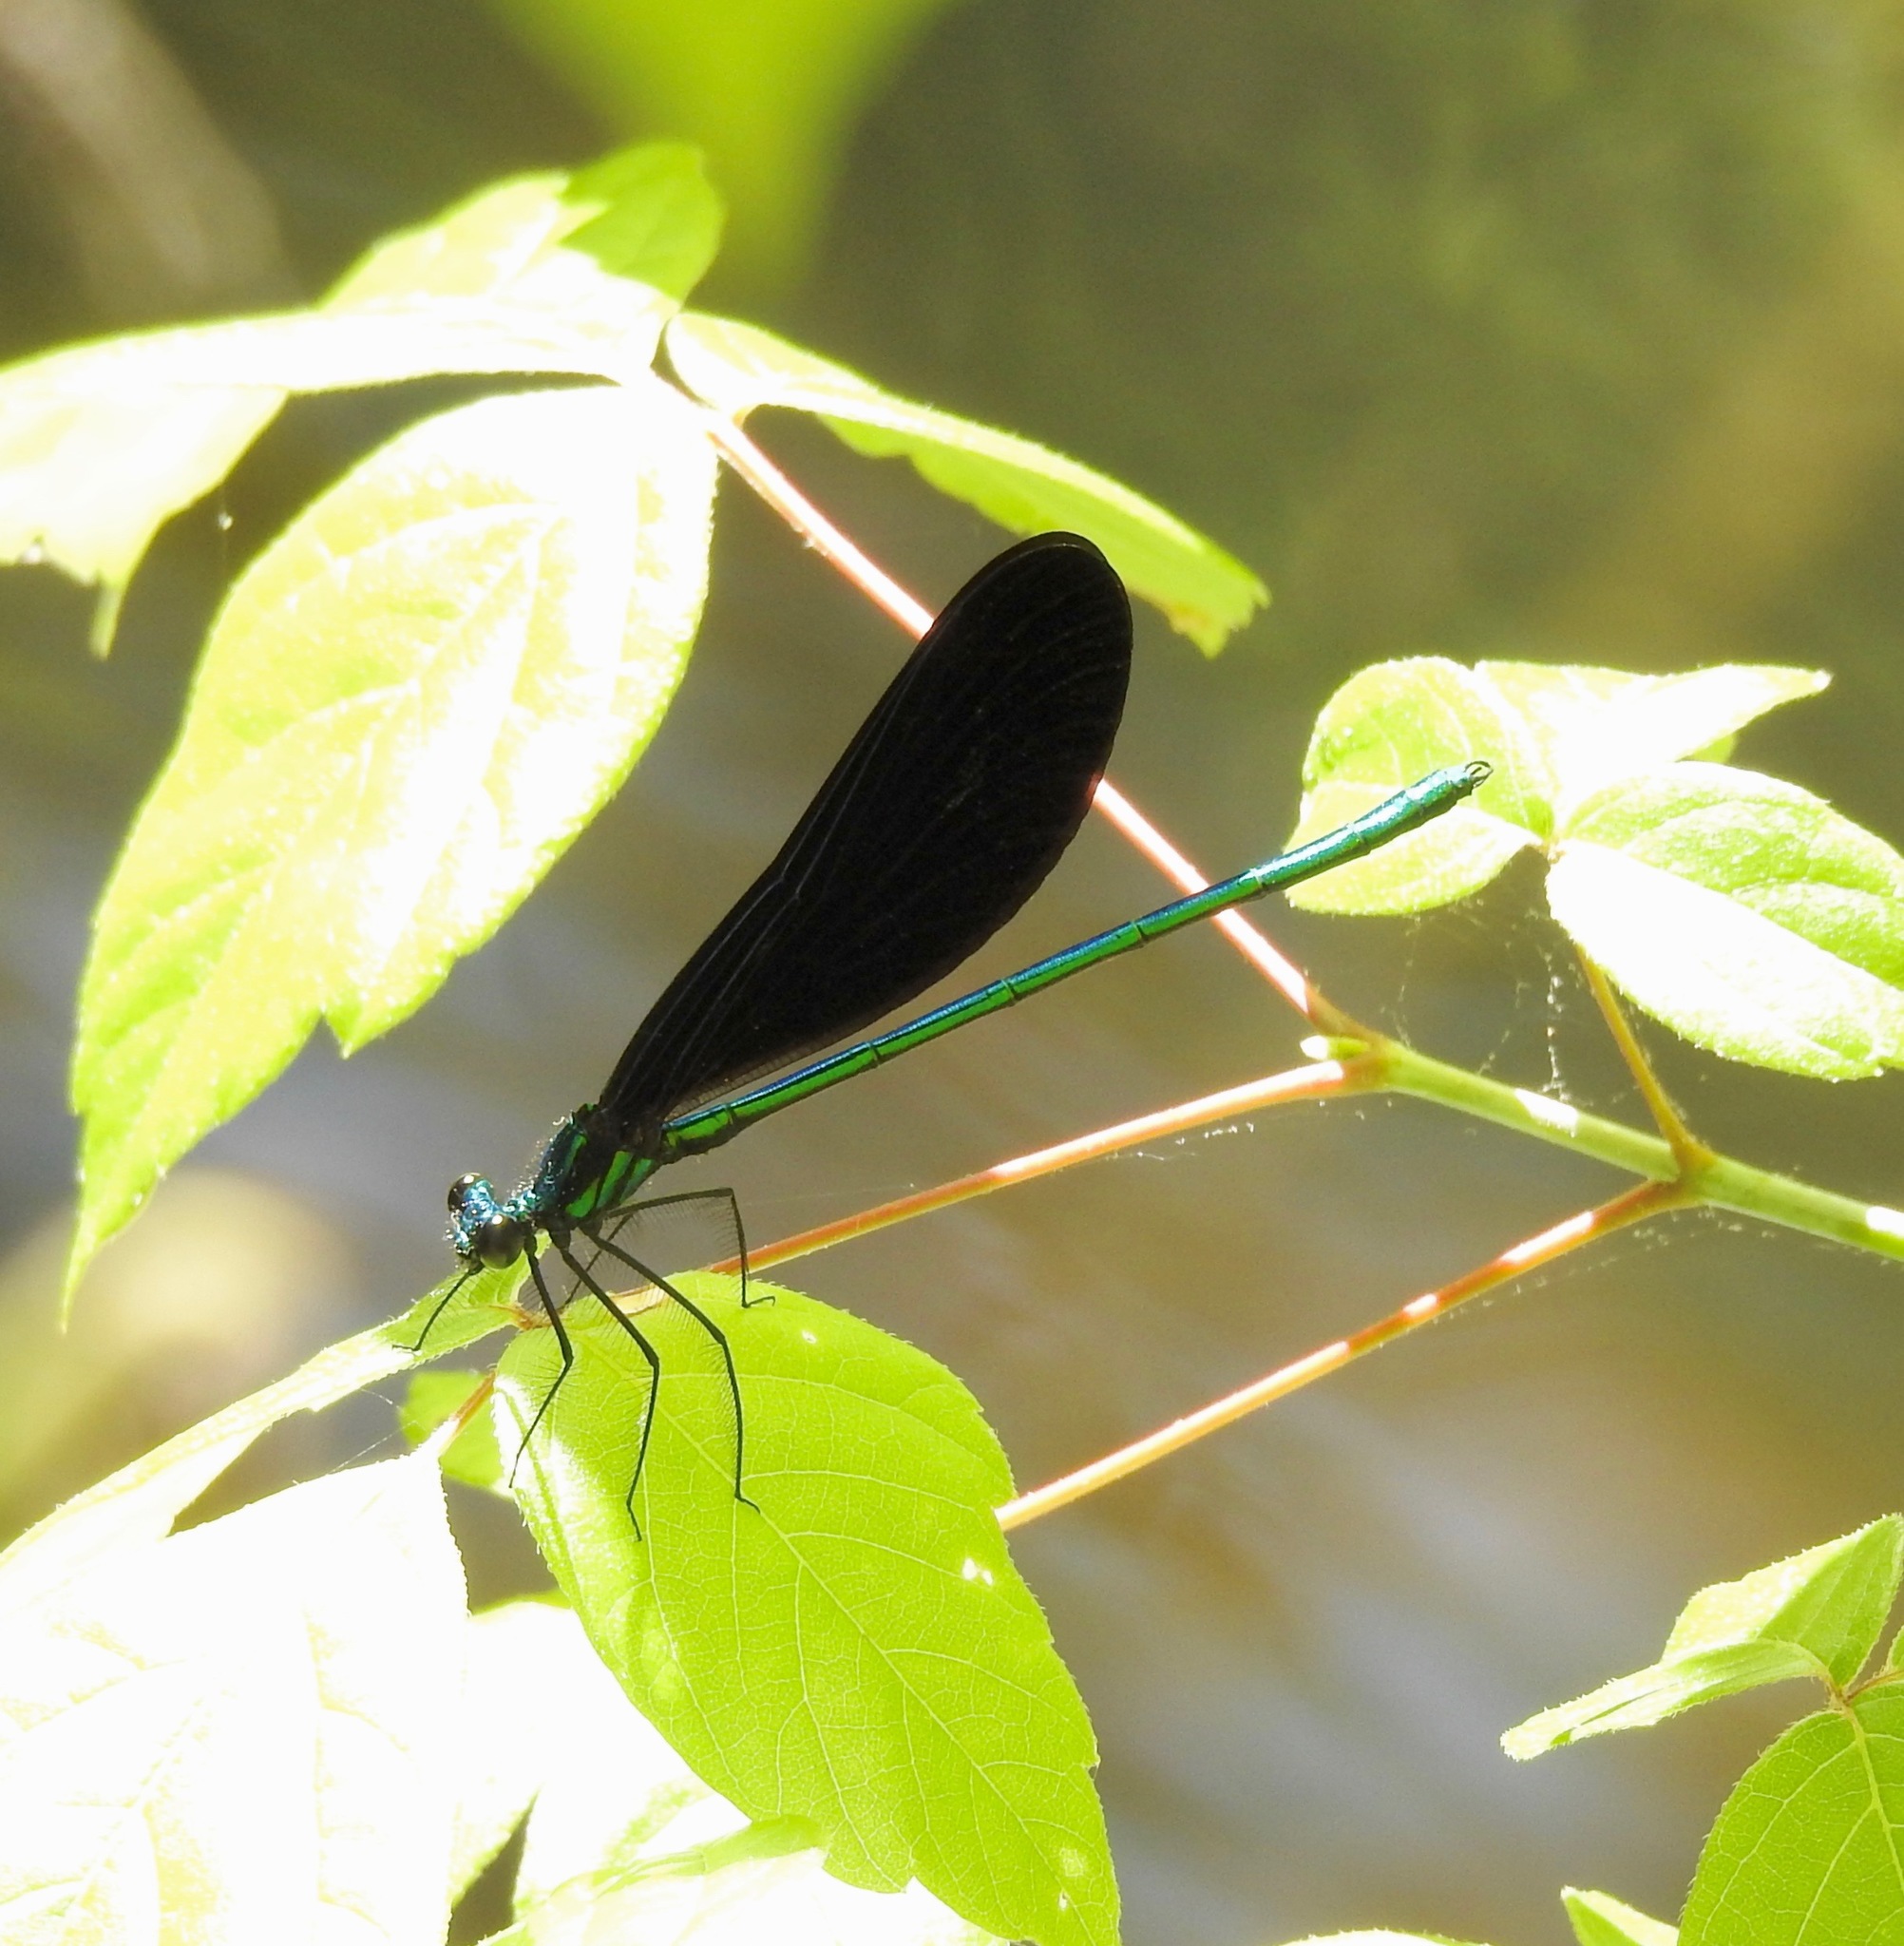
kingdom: Animalia
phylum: Arthropoda
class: Insecta
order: Odonata
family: Calopterygidae
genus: Calopteryx
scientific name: Calopteryx maculata
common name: Ebony jewelwing
